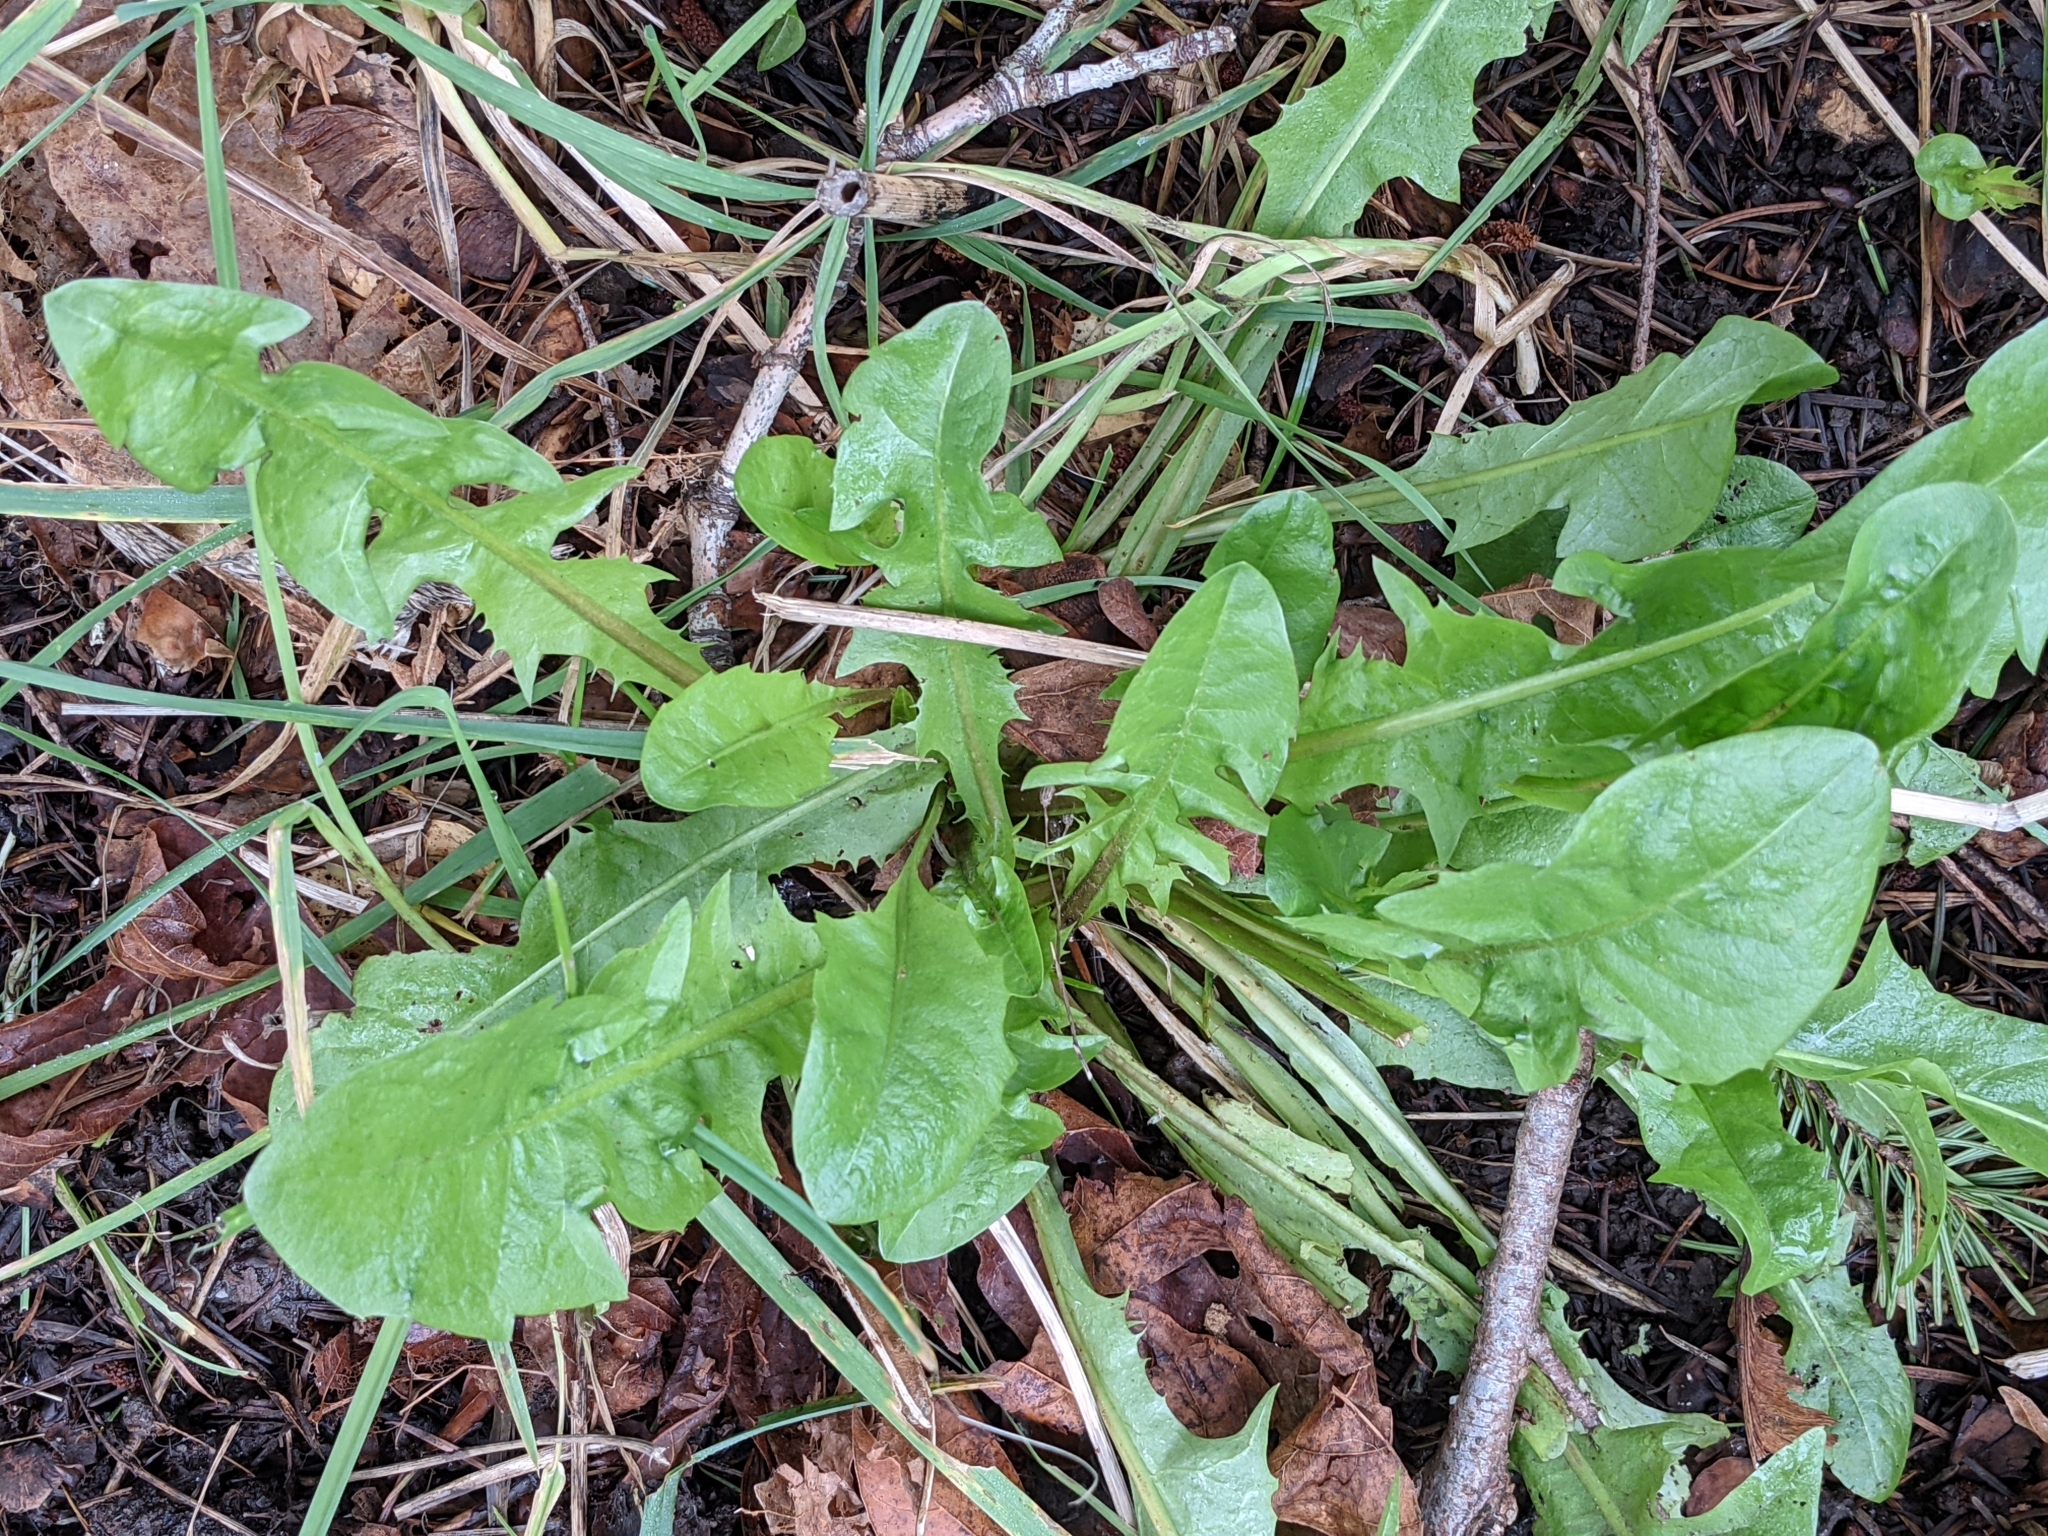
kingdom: Plantae
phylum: Tracheophyta
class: Magnoliopsida
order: Asterales
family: Asteraceae
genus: Taraxacum
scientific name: Taraxacum officinale
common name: Common dandelion
